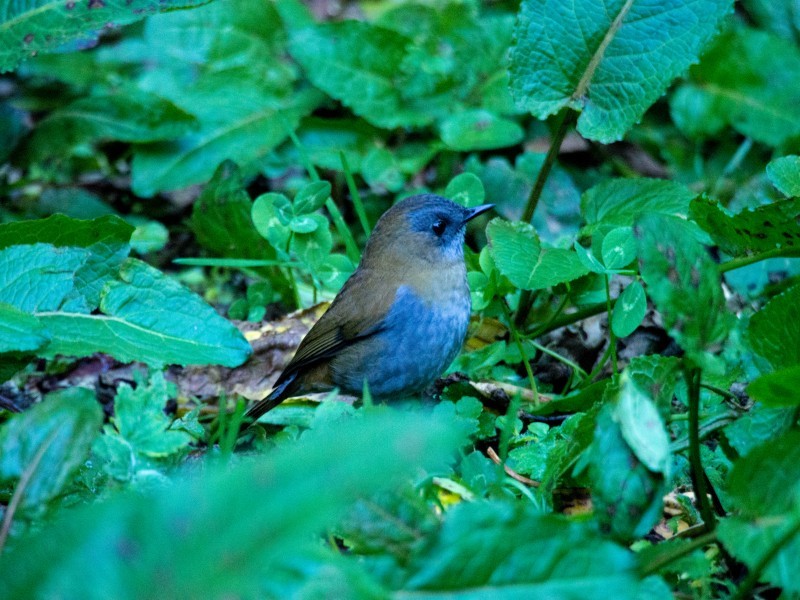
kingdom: Animalia
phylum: Chordata
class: Aves
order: Passeriformes
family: Turdidae
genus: Catharus
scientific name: Catharus gracilirostris
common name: Black-billed nightingale-thrush
